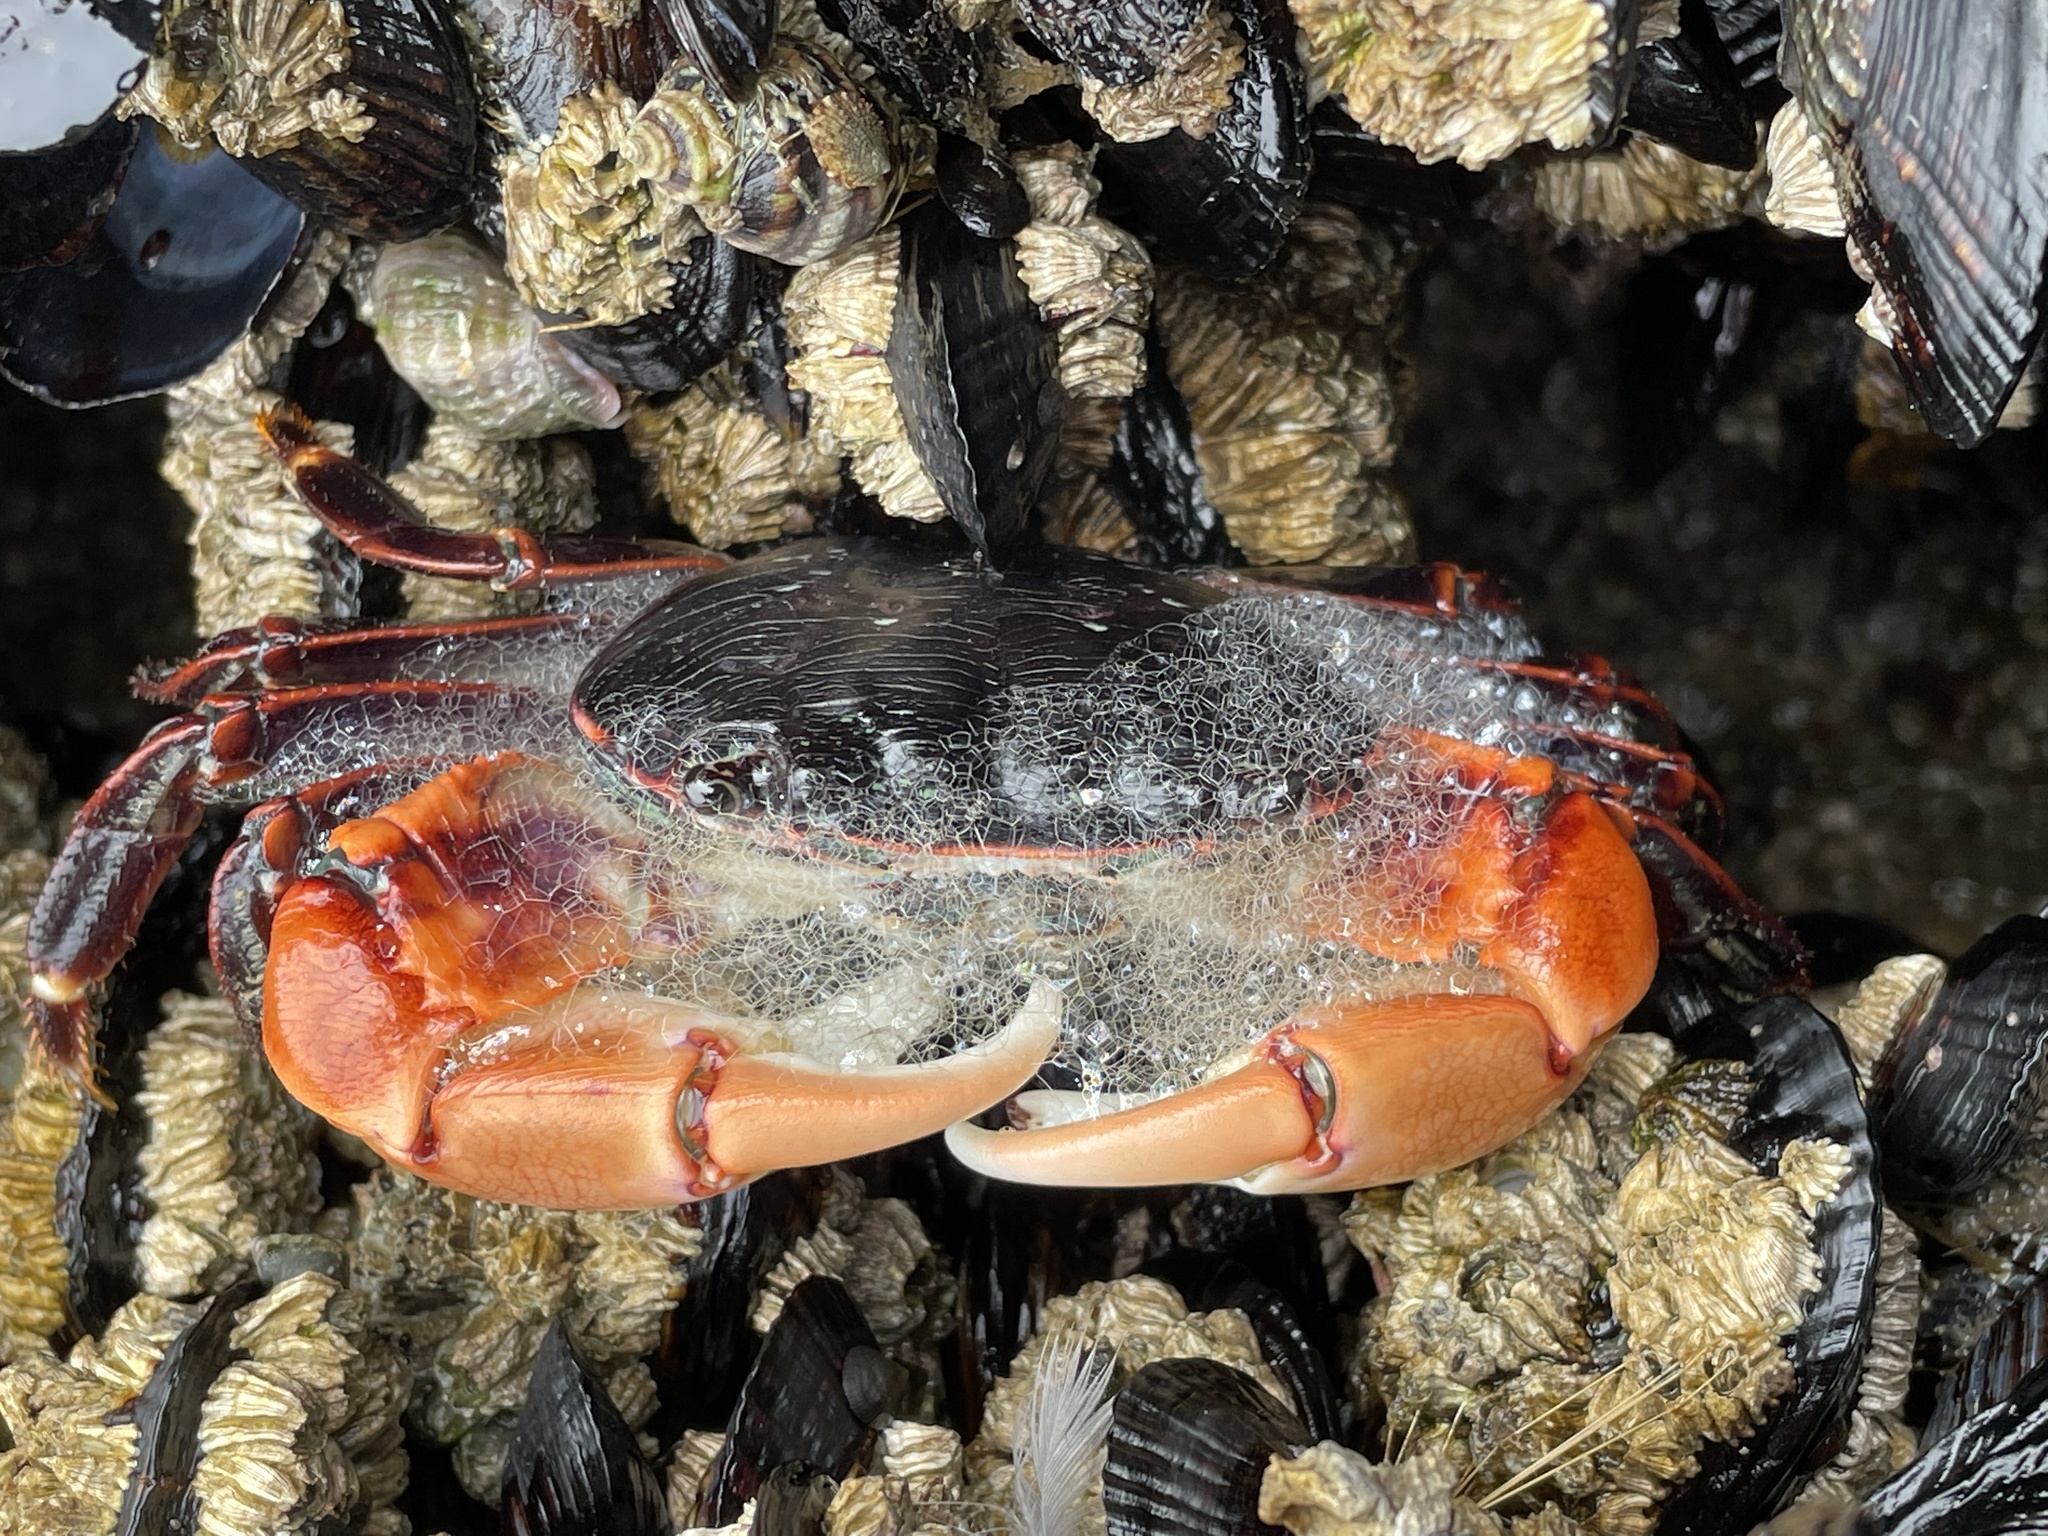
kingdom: Animalia
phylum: Arthropoda
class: Malacostraca
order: Decapoda
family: Grapsidae
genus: Pachygrapsus
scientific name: Pachygrapsus crassipes
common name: Striped shore crab
